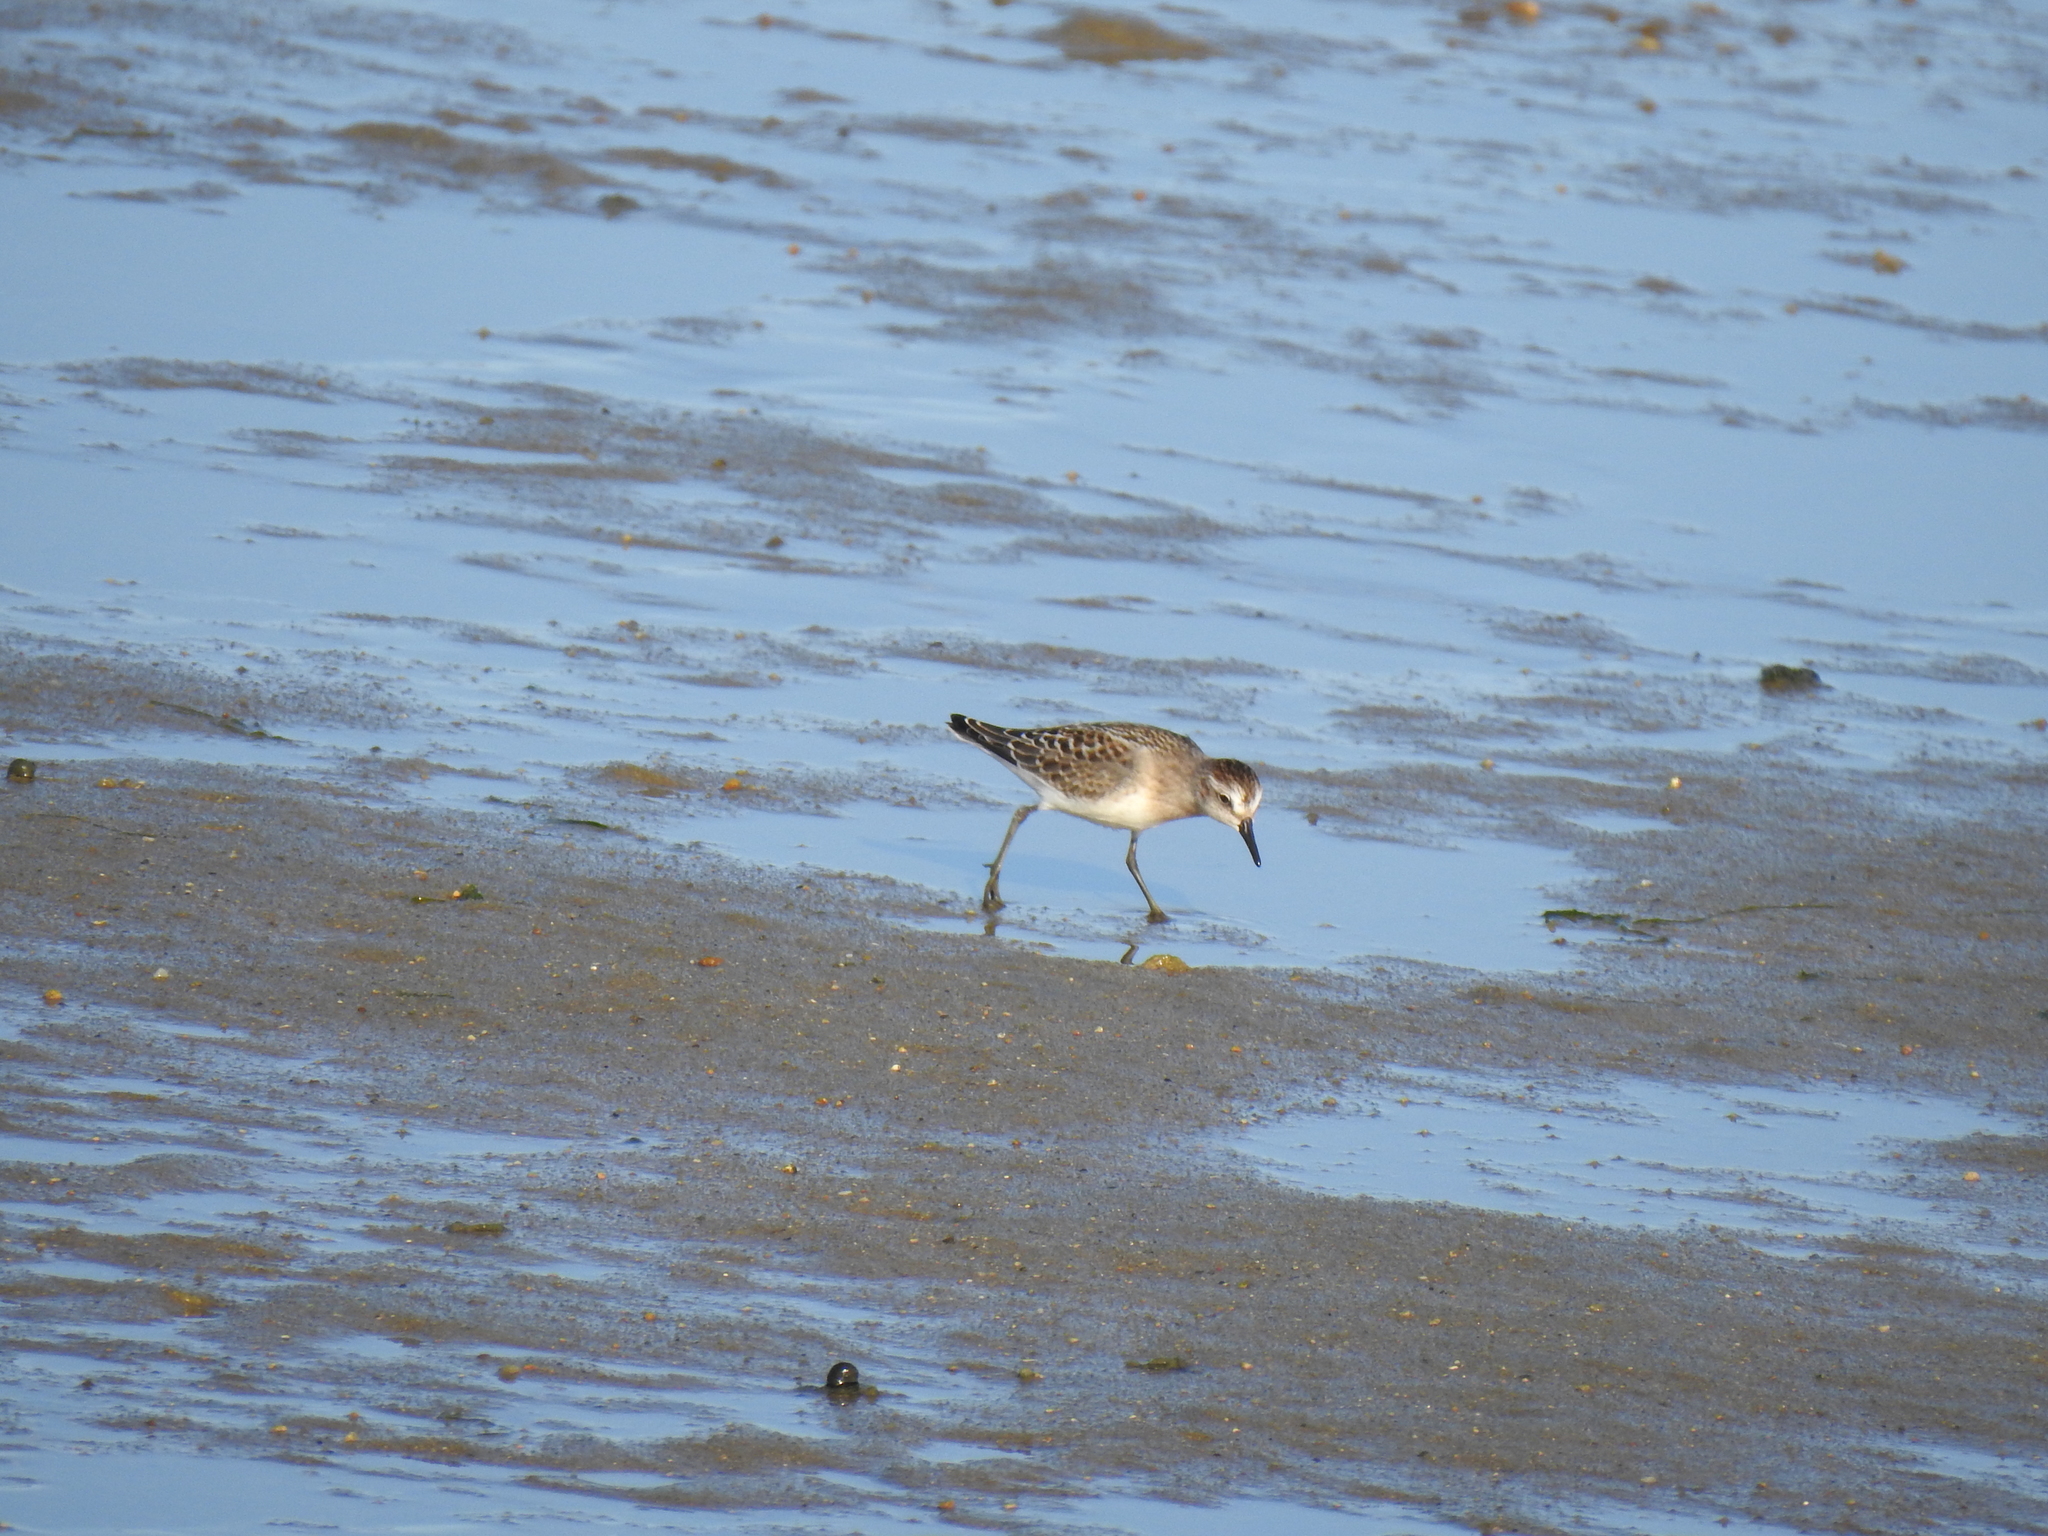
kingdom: Animalia
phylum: Chordata
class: Aves
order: Charadriiformes
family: Scolopacidae
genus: Calidris
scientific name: Calidris minutilla
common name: Least sandpiper
